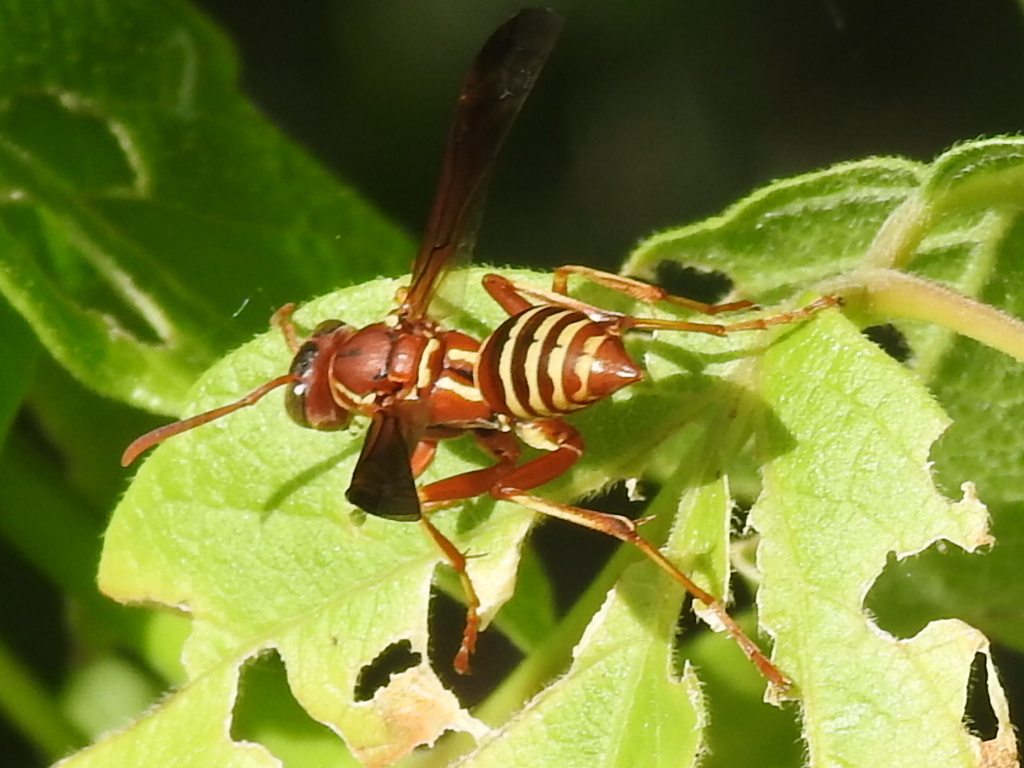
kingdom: Animalia
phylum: Arthropoda
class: Insecta
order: Hymenoptera
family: Eumenidae
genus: Polistes
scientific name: Polistes bellicosus
